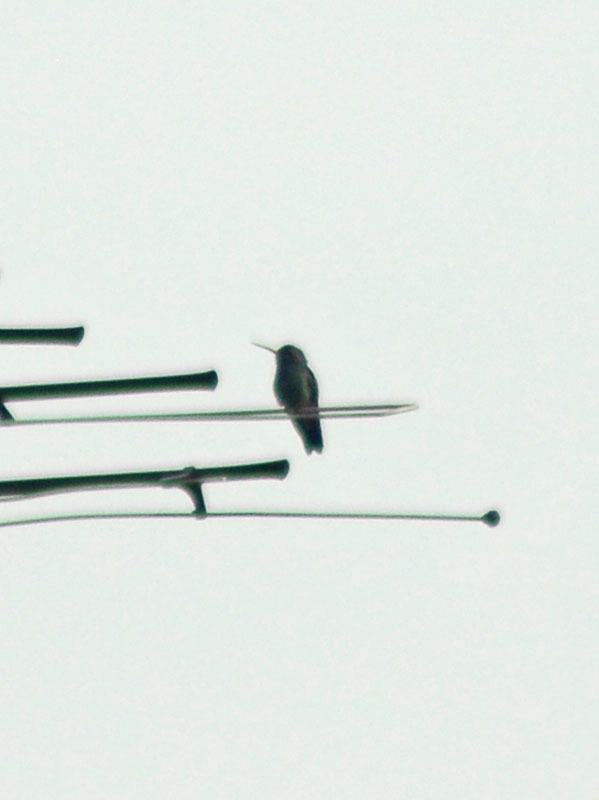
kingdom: Animalia
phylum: Chordata
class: Aves
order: Apodiformes
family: Trochilidae
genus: Cynanthus
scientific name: Cynanthus latirostris
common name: Broad-billed hummingbird
